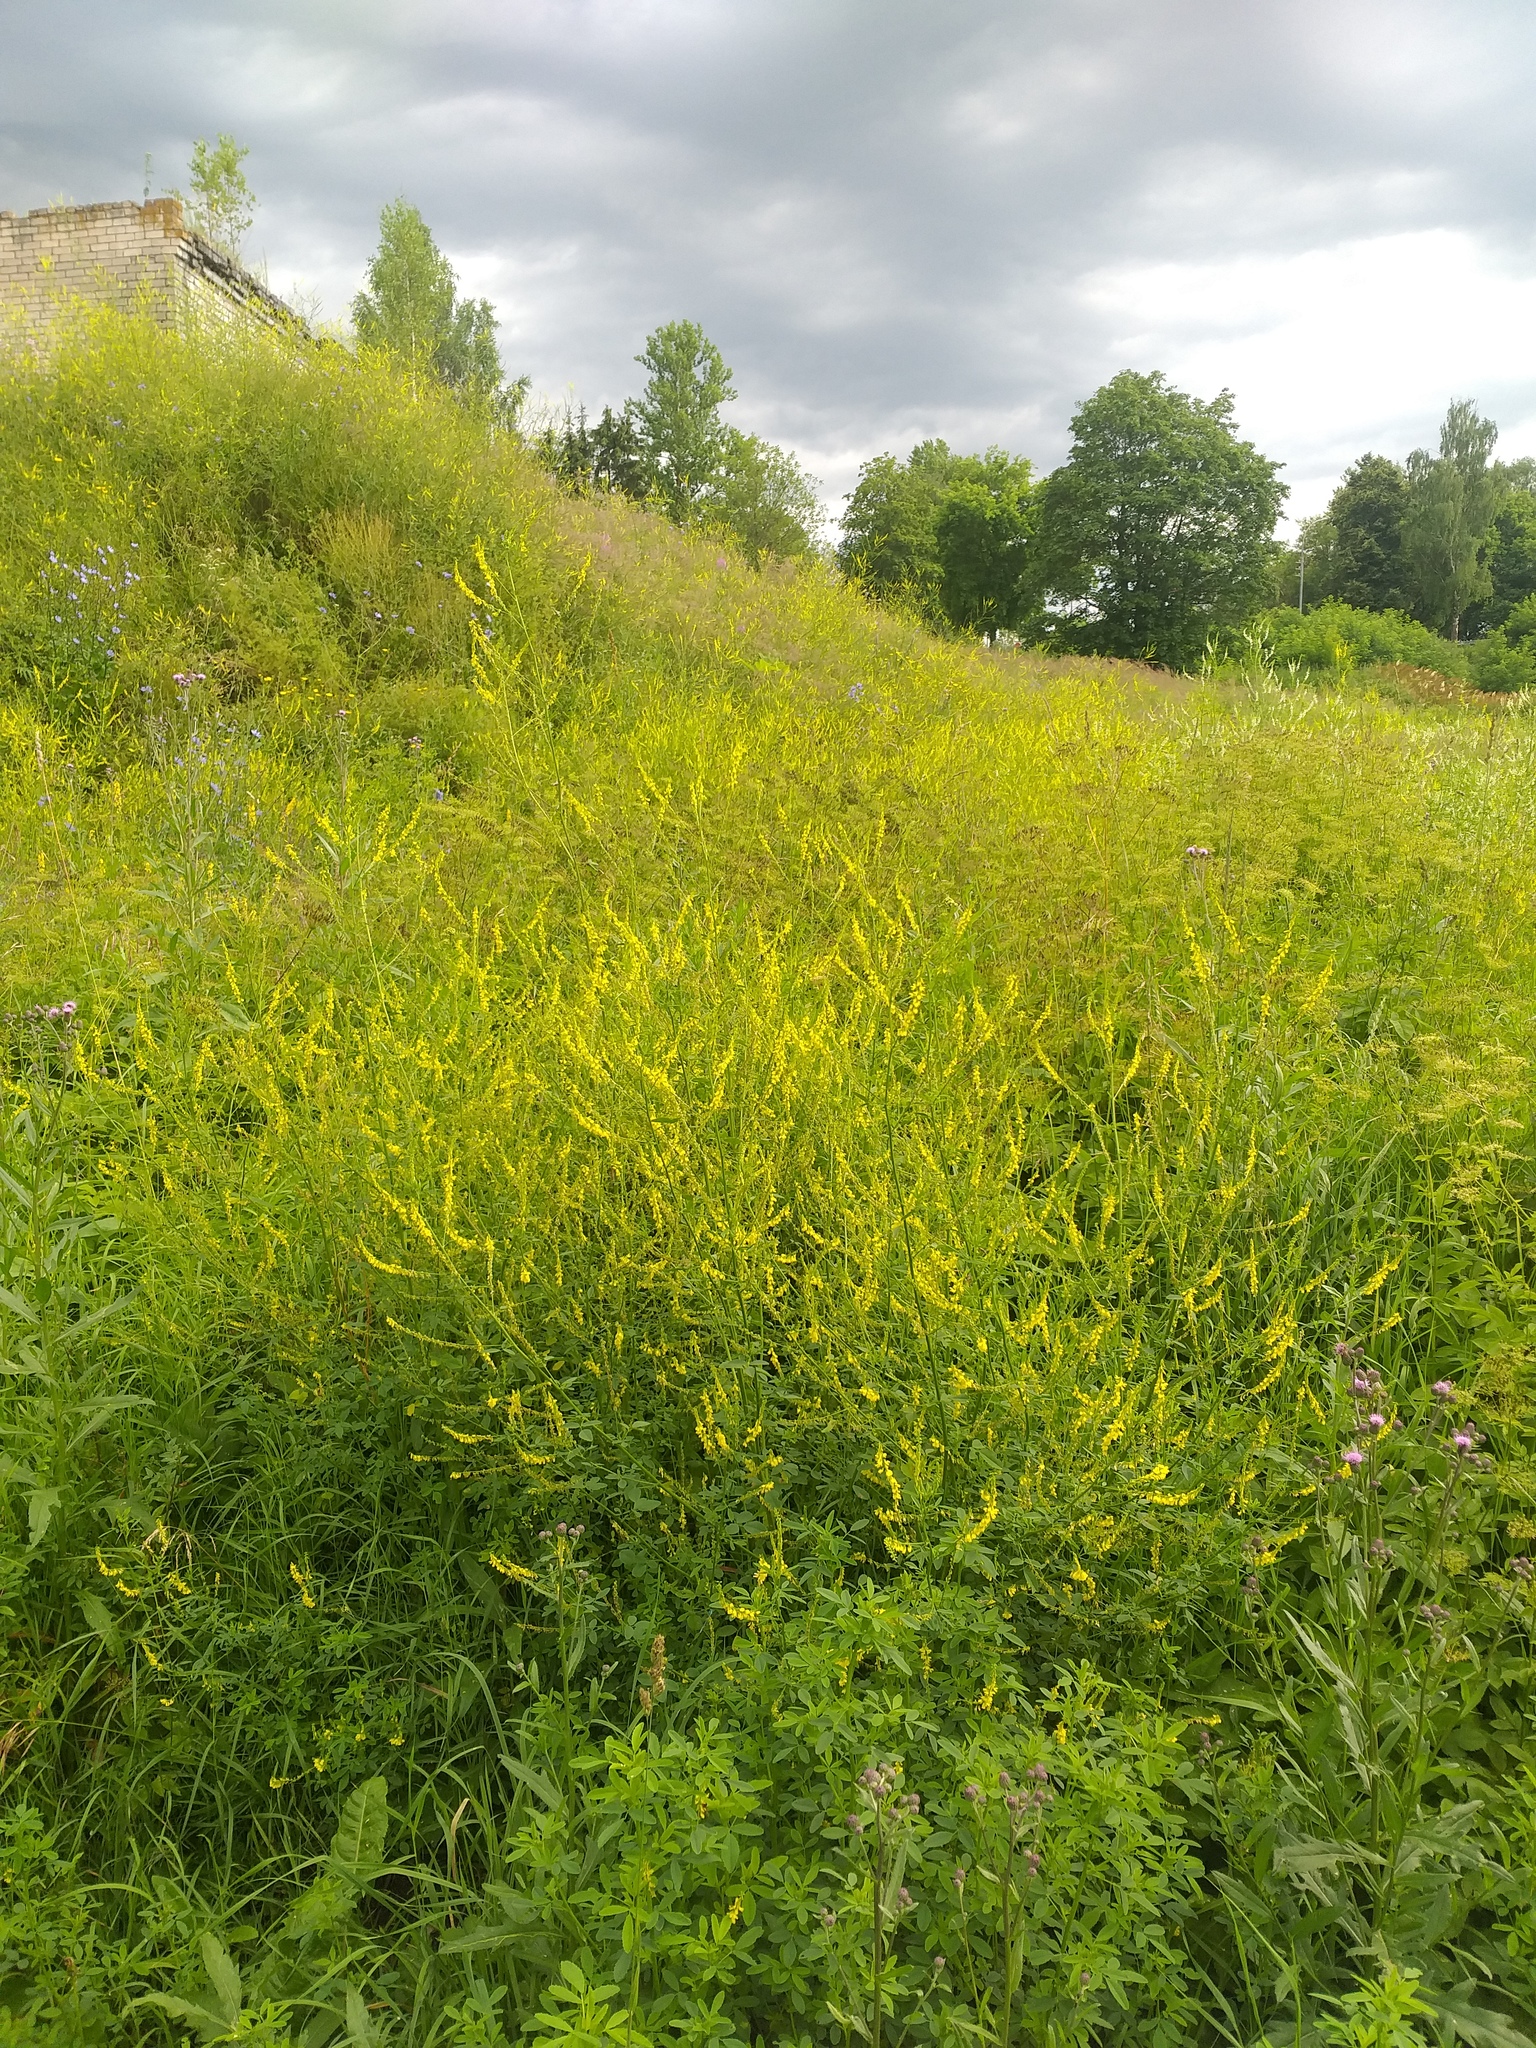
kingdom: Plantae
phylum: Tracheophyta
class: Magnoliopsida
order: Fabales
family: Fabaceae
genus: Melilotus
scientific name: Melilotus officinalis
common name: Sweetclover
